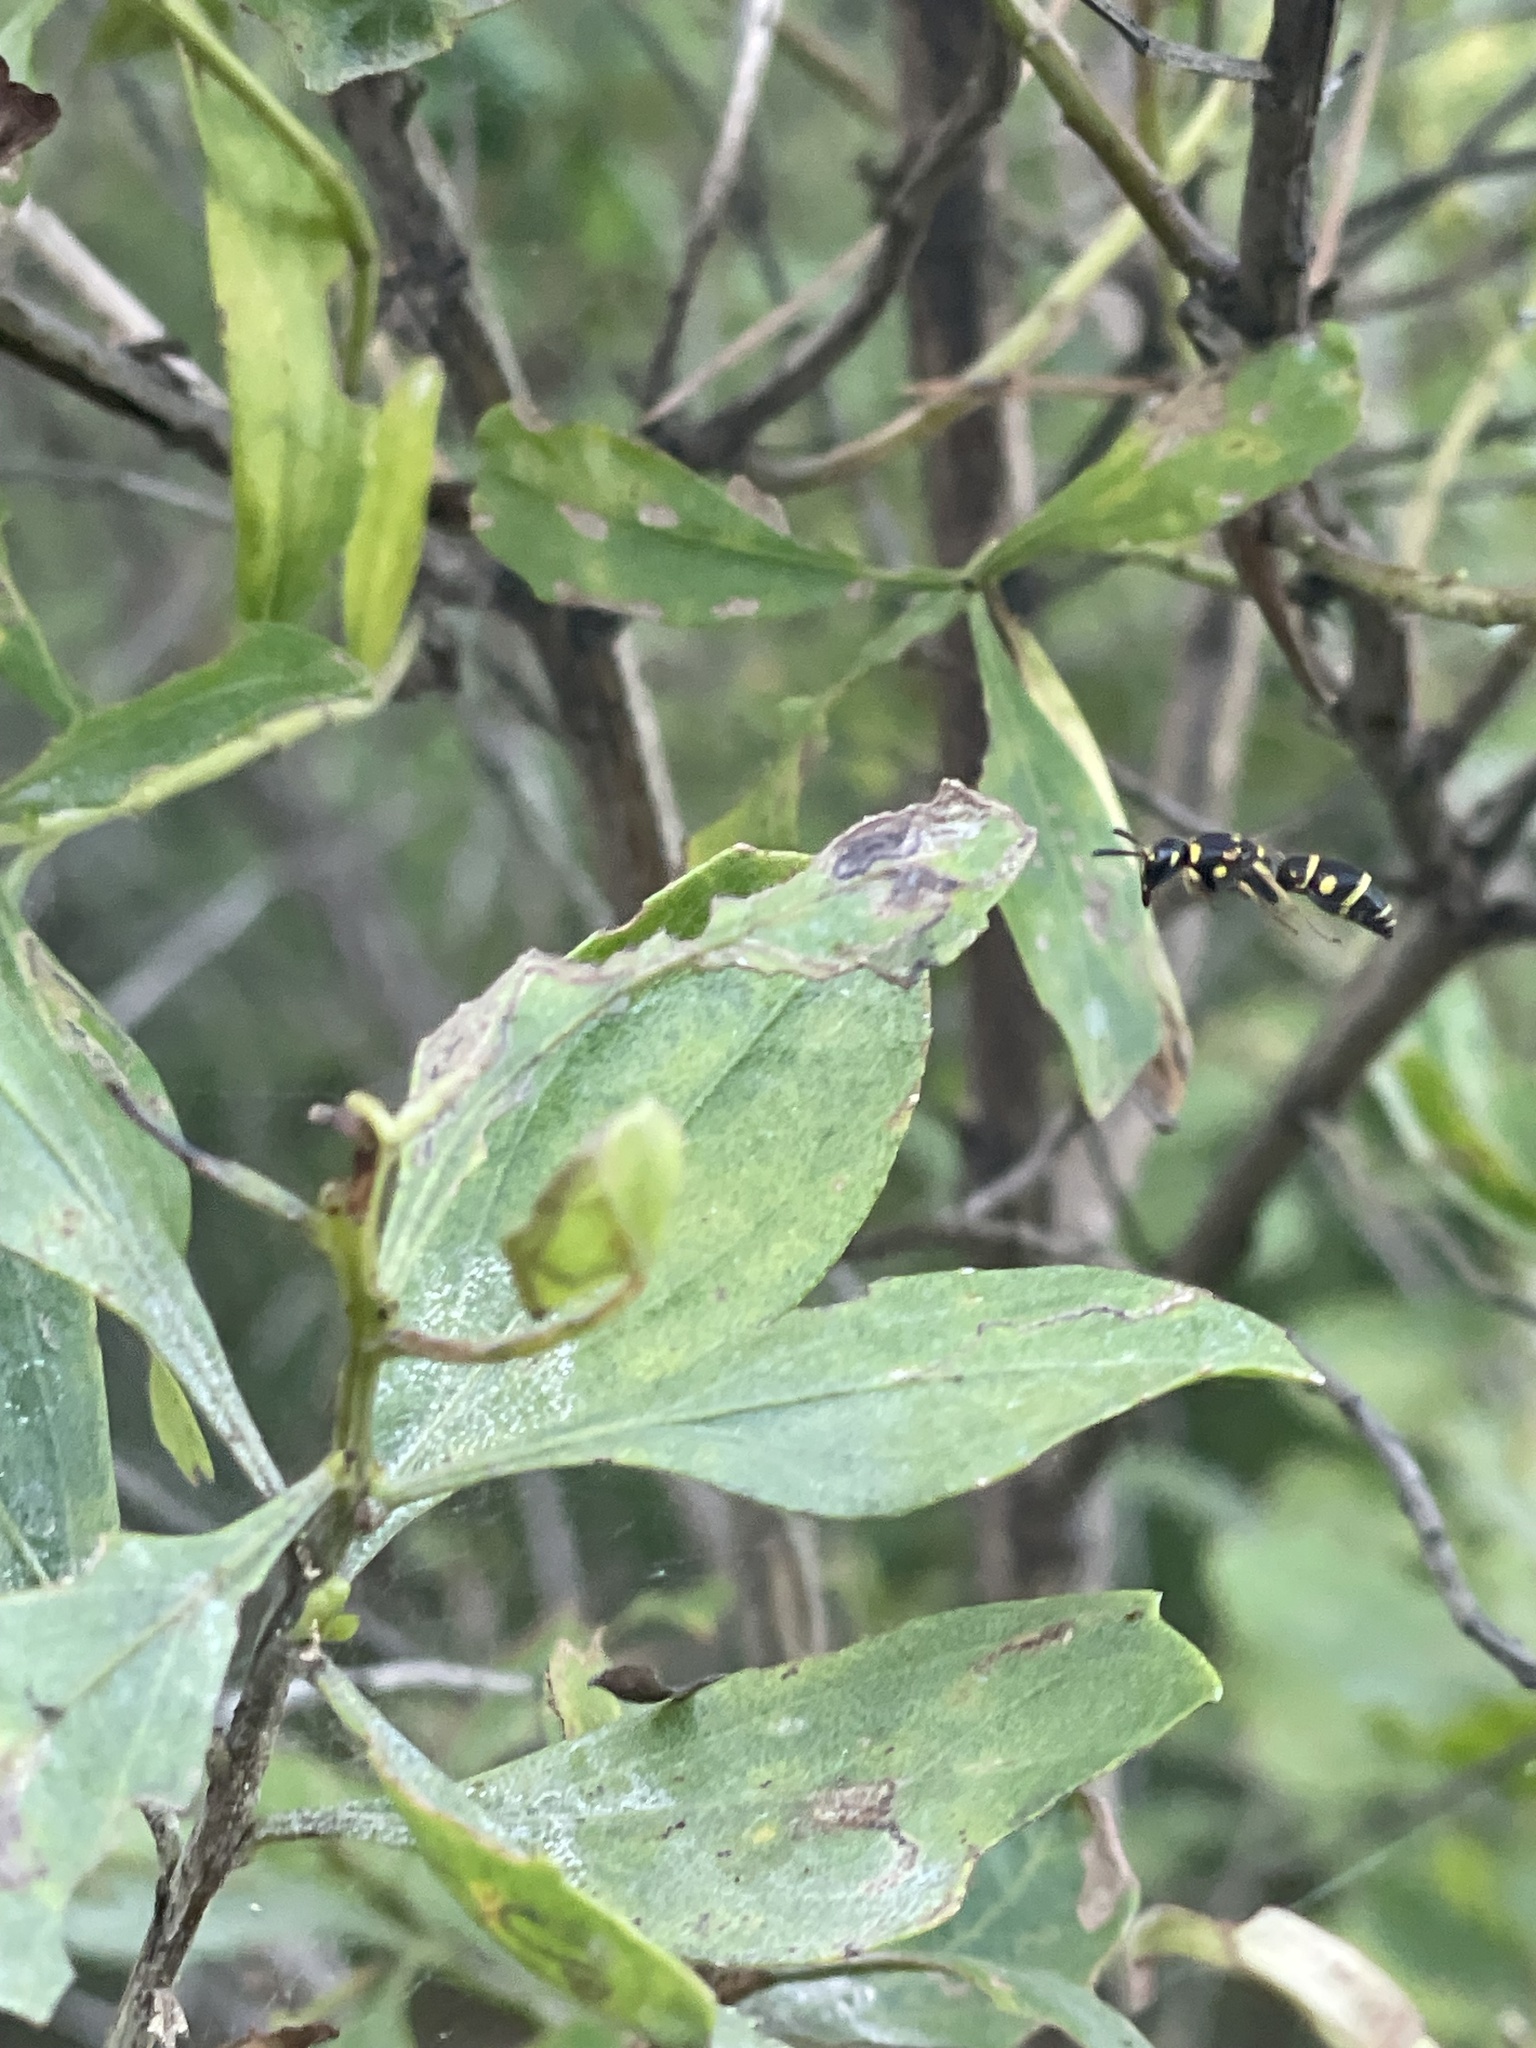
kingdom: Animalia
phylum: Arthropoda
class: Insecta
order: Hymenoptera
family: Eumenidae
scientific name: Eumenidae
